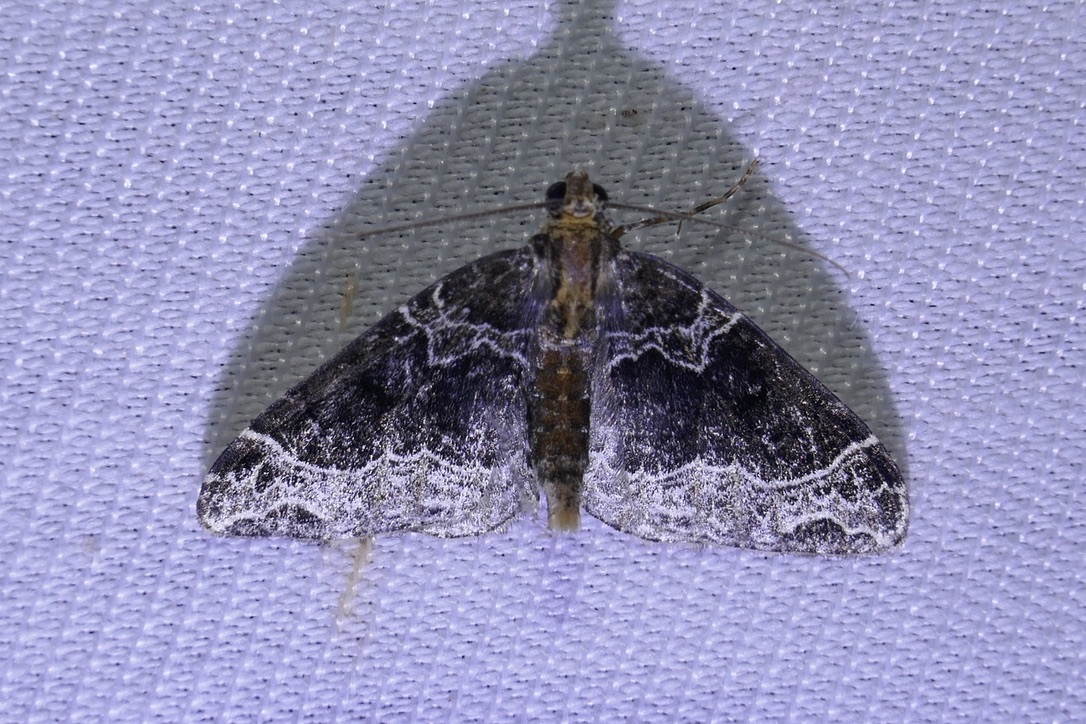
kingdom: Animalia
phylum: Arthropoda
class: Insecta
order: Lepidoptera
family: Geometridae
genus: Ecliptopera
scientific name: Ecliptopera silaceata
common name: Small phoenix
